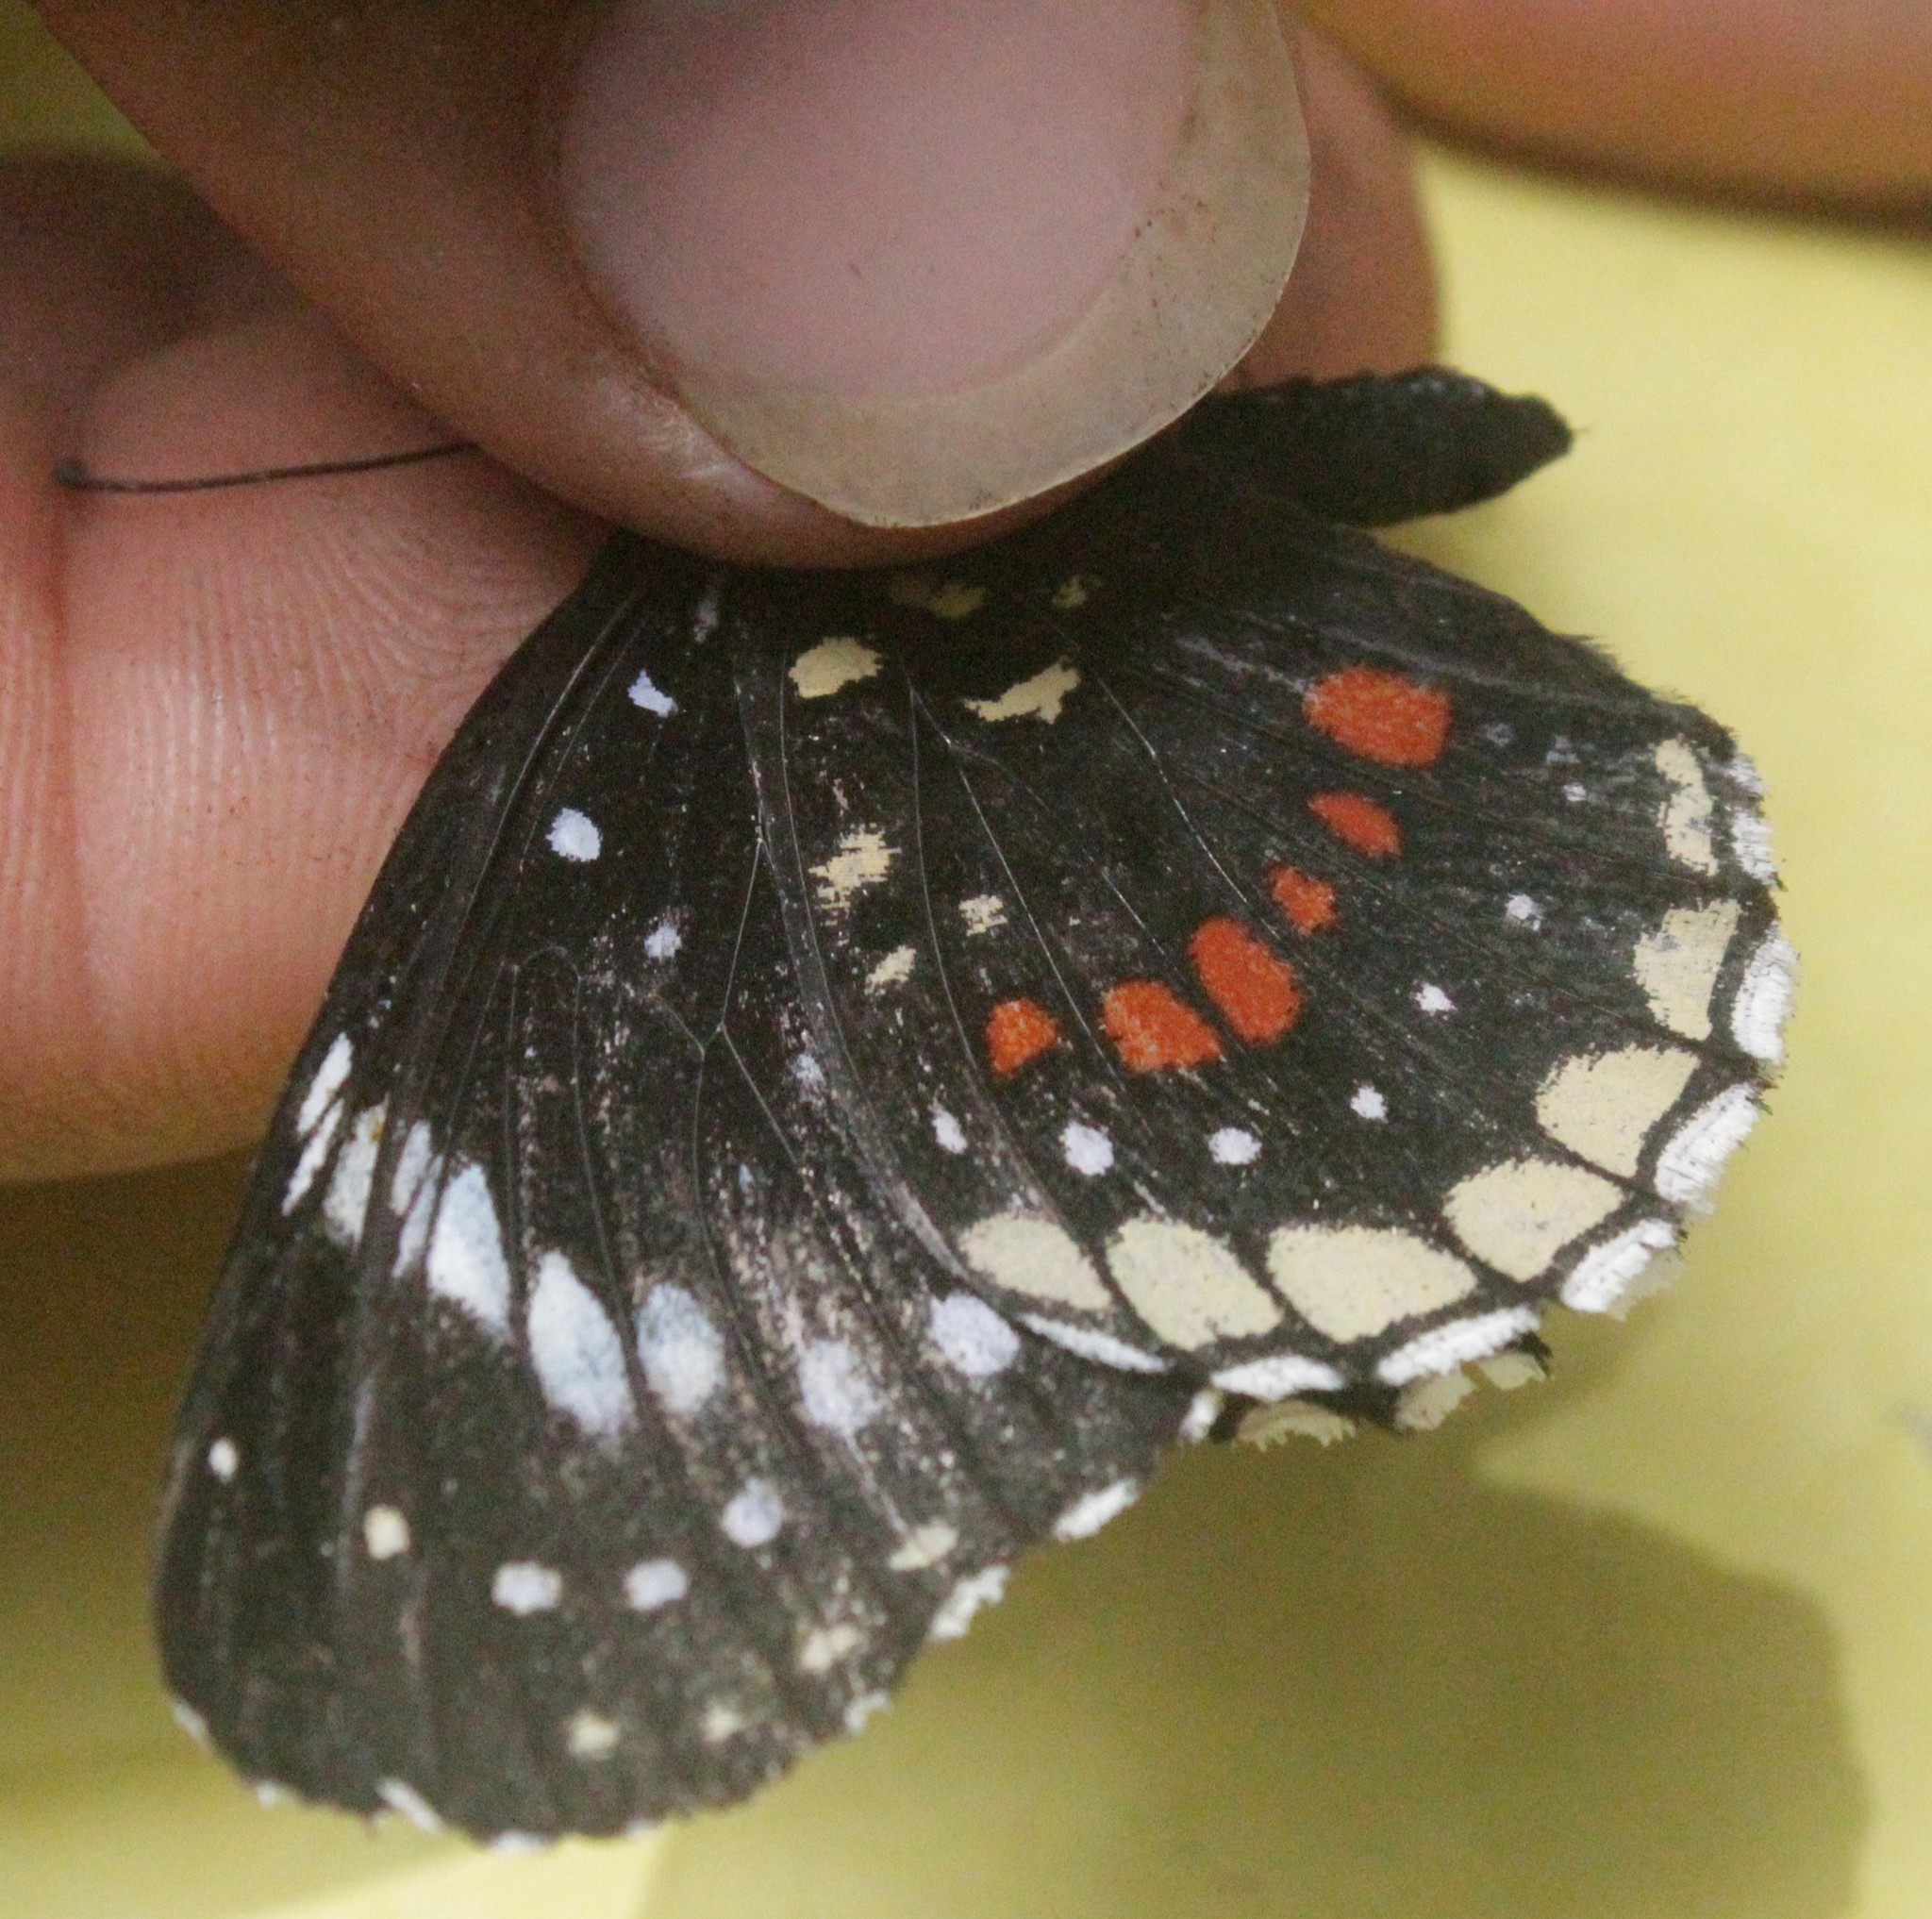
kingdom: Animalia
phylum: Arthropoda
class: Insecta
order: Lepidoptera
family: Nymphalidae
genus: Chlosyne
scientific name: Chlosyne hippodrome
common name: Simple patch
